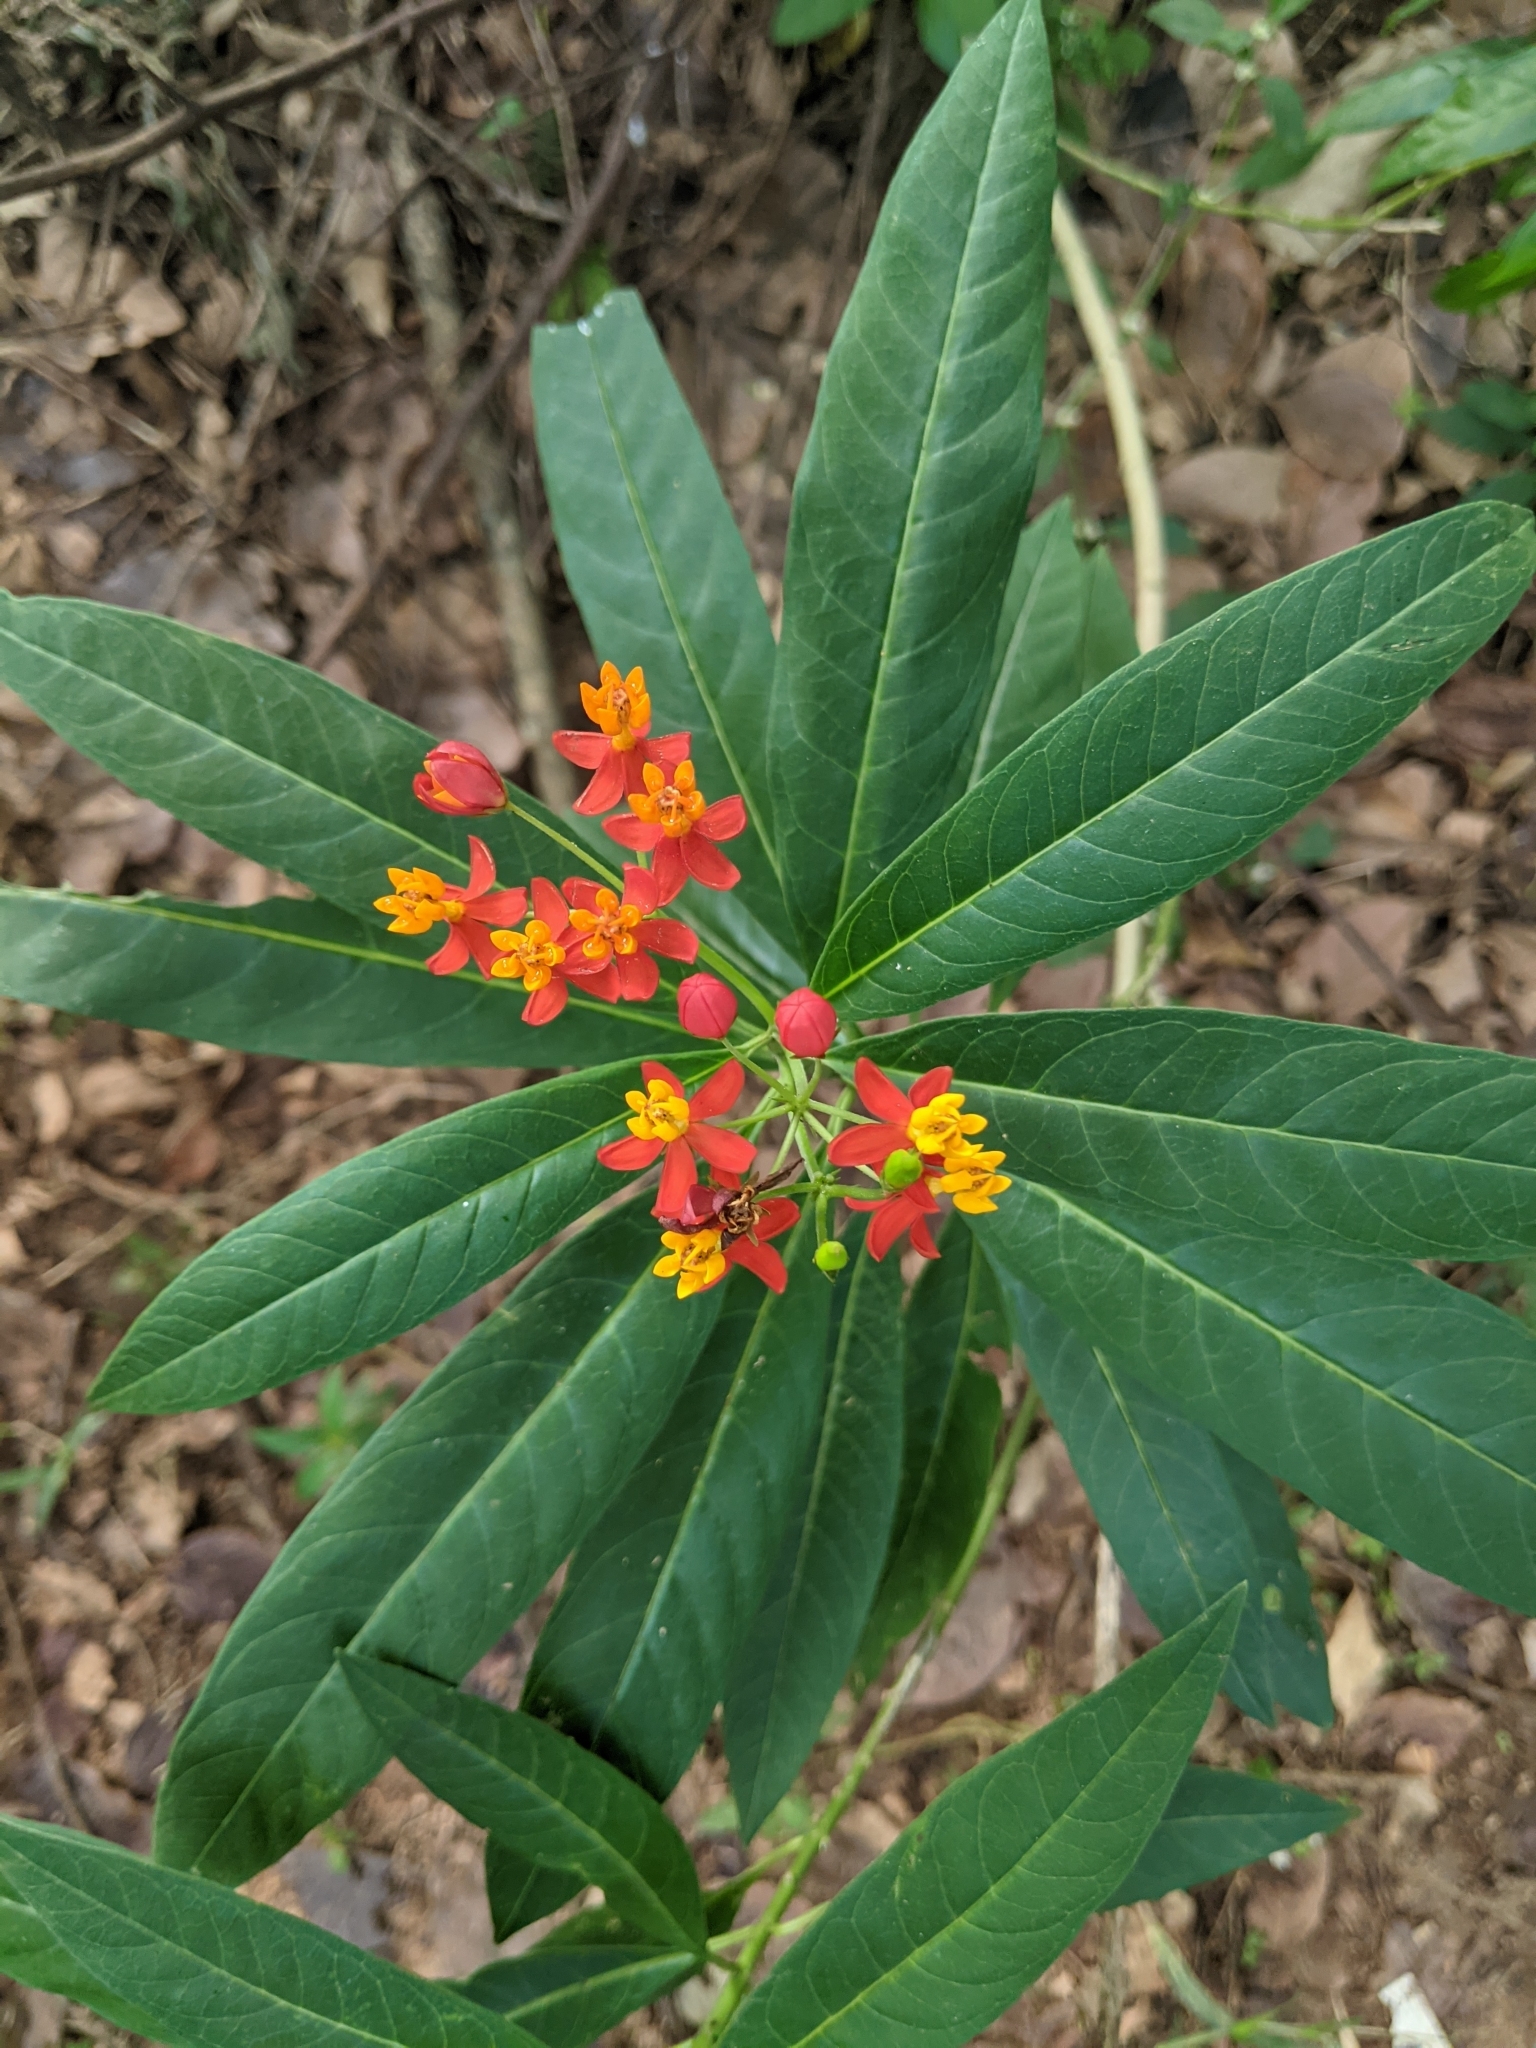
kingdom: Plantae
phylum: Tracheophyta
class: Magnoliopsida
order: Gentianales
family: Apocynaceae
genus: Asclepias
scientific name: Asclepias curassavica
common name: Bloodflower
